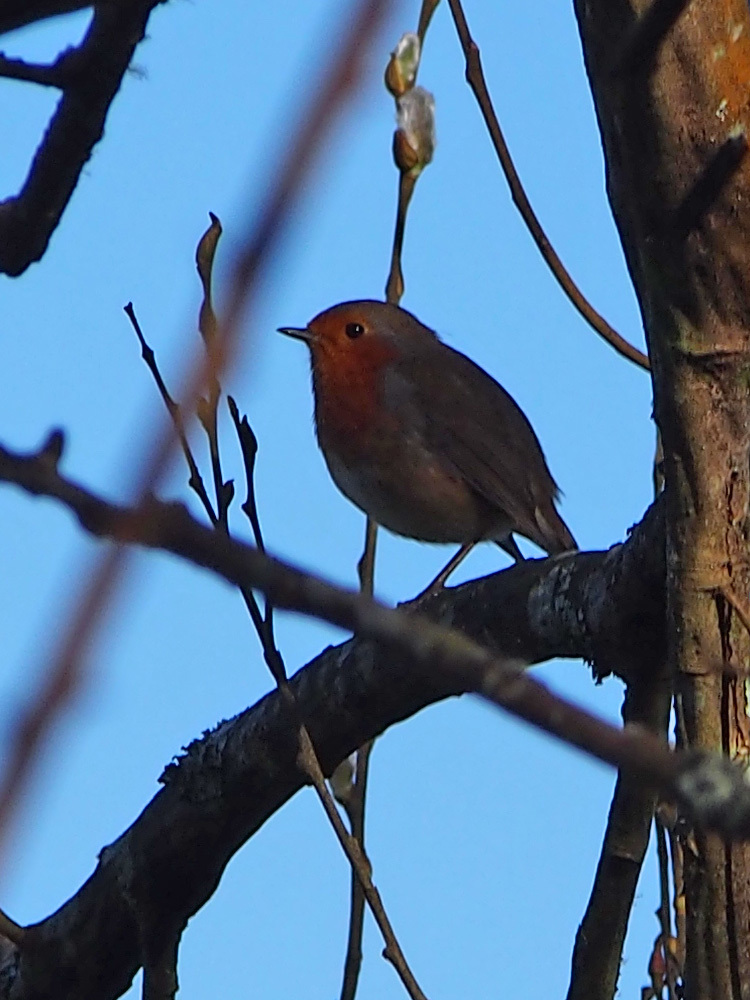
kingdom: Animalia
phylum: Chordata
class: Aves
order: Passeriformes
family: Muscicapidae
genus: Erithacus
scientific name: Erithacus rubecula
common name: European robin
